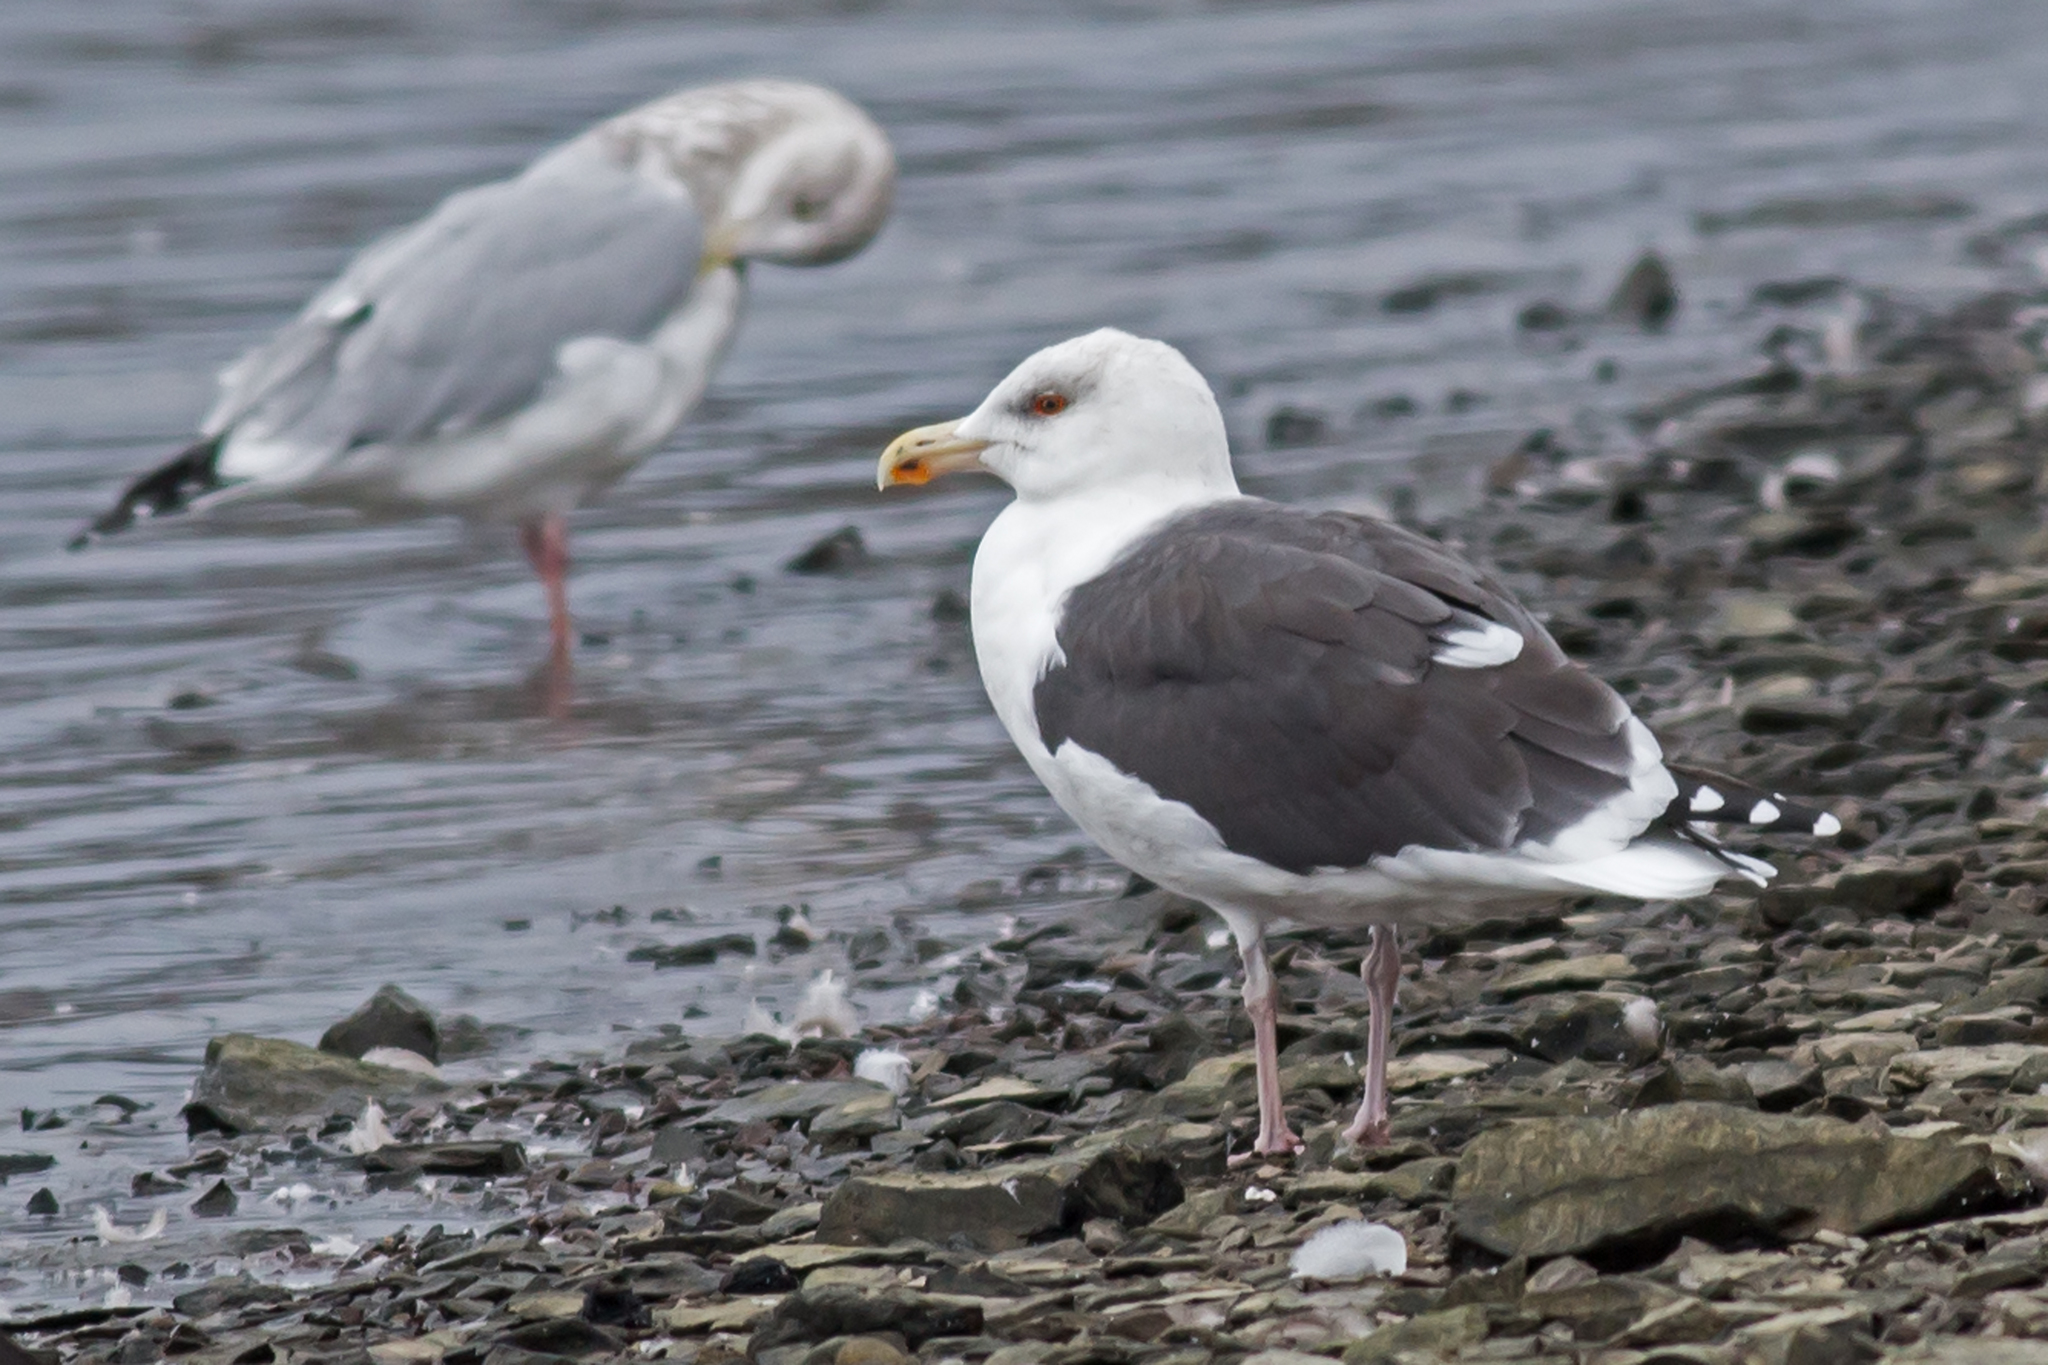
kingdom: Animalia
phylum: Chordata
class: Aves
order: Charadriiformes
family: Laridae
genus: Larus
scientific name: Larus marinus
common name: Great black-backed gull
